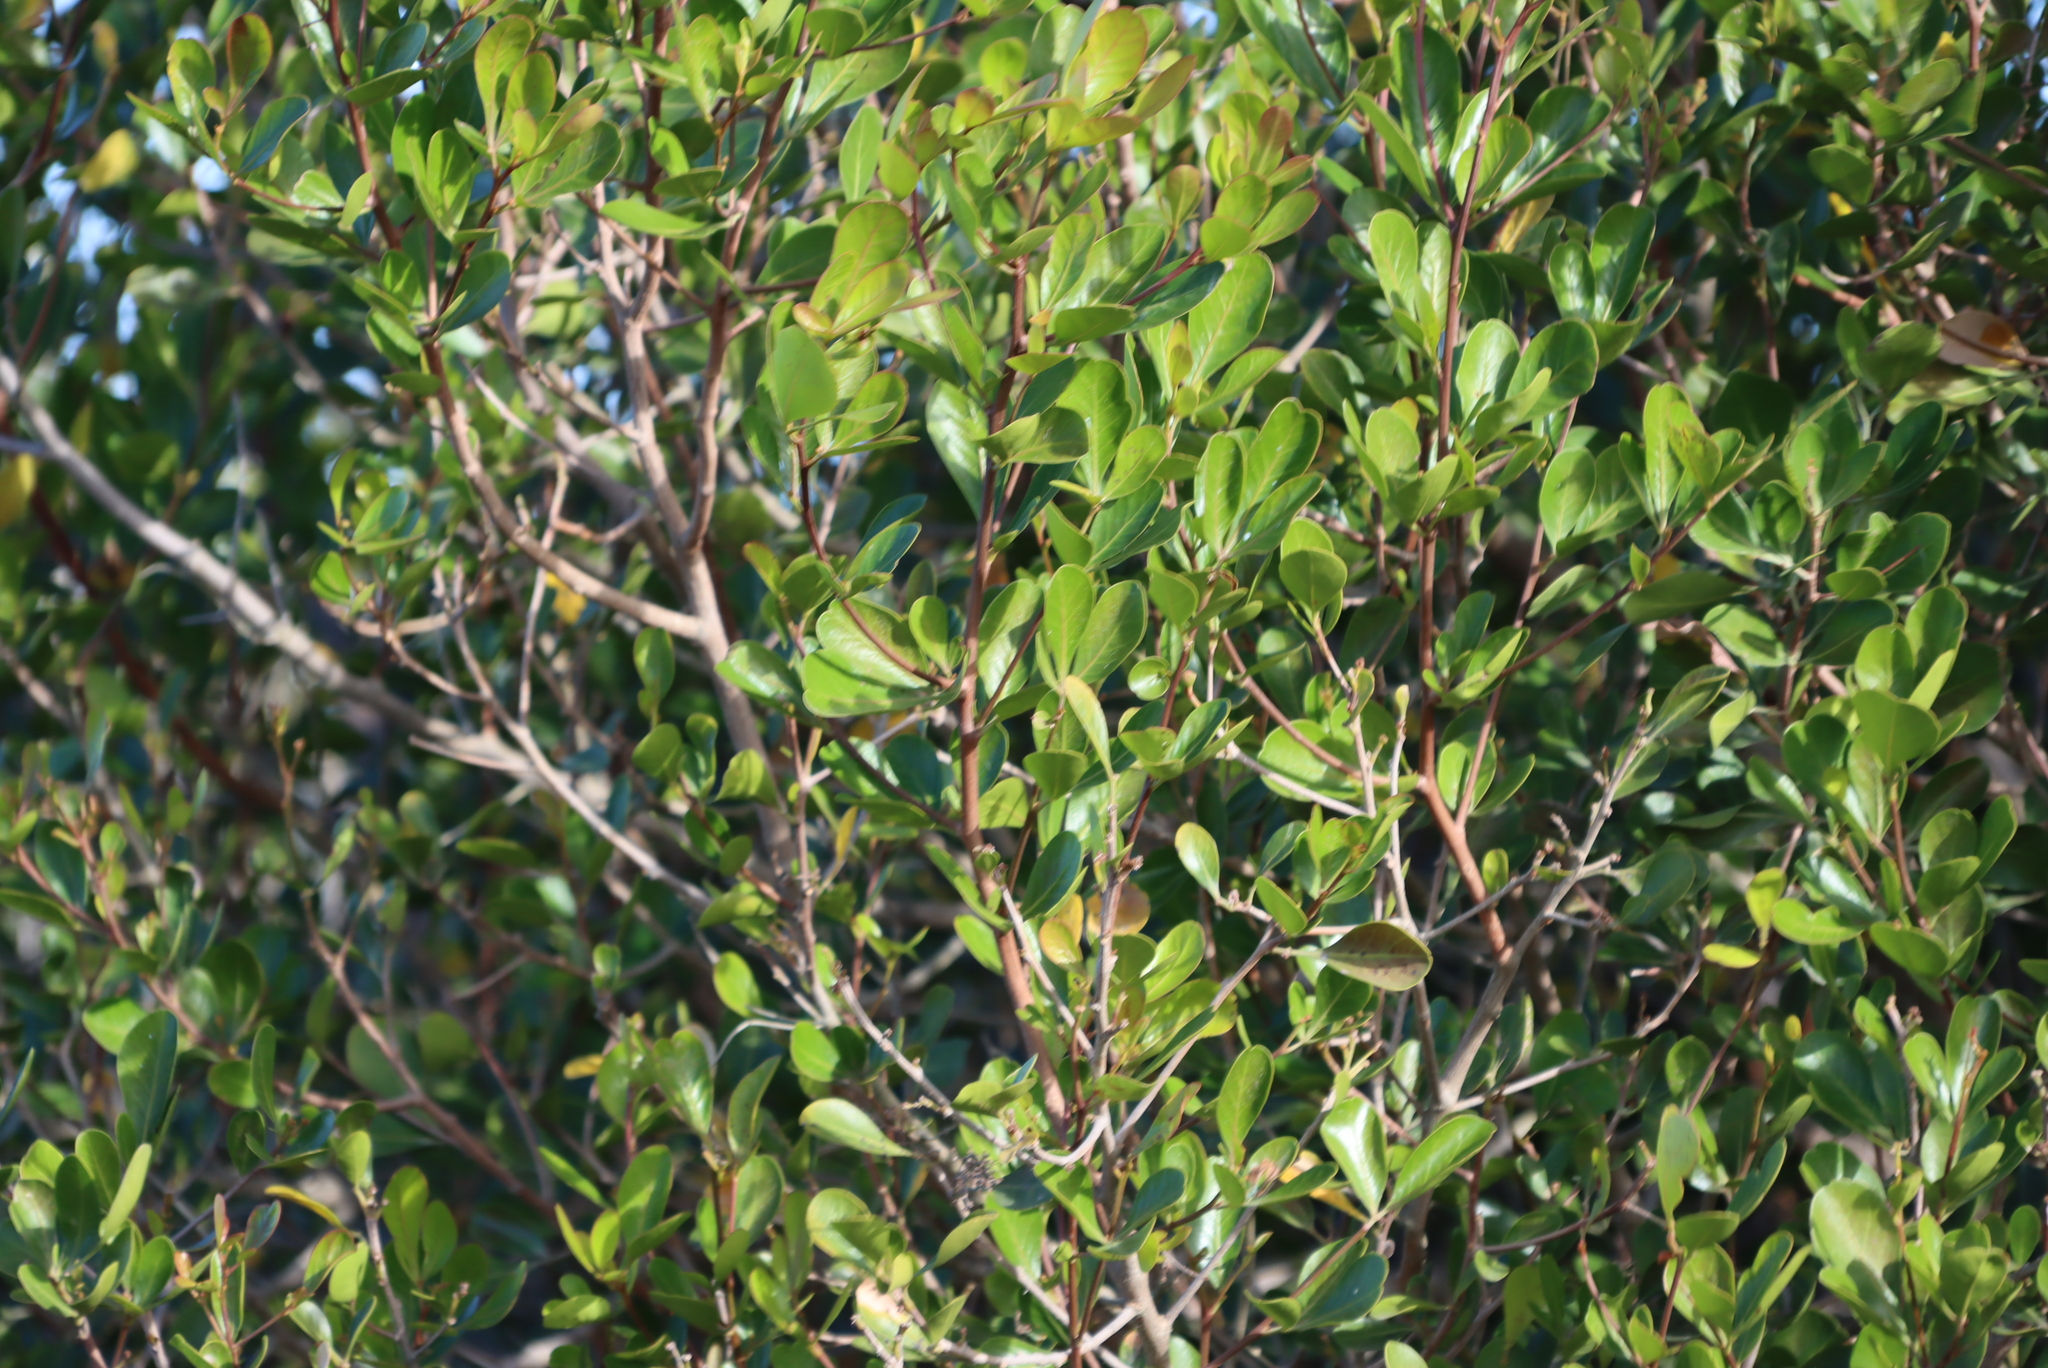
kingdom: Plantae
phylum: Tracheophyta
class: Magnoliopsida
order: Sapindales
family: Anacardiaceae
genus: Searsia
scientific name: Searsia lucida
